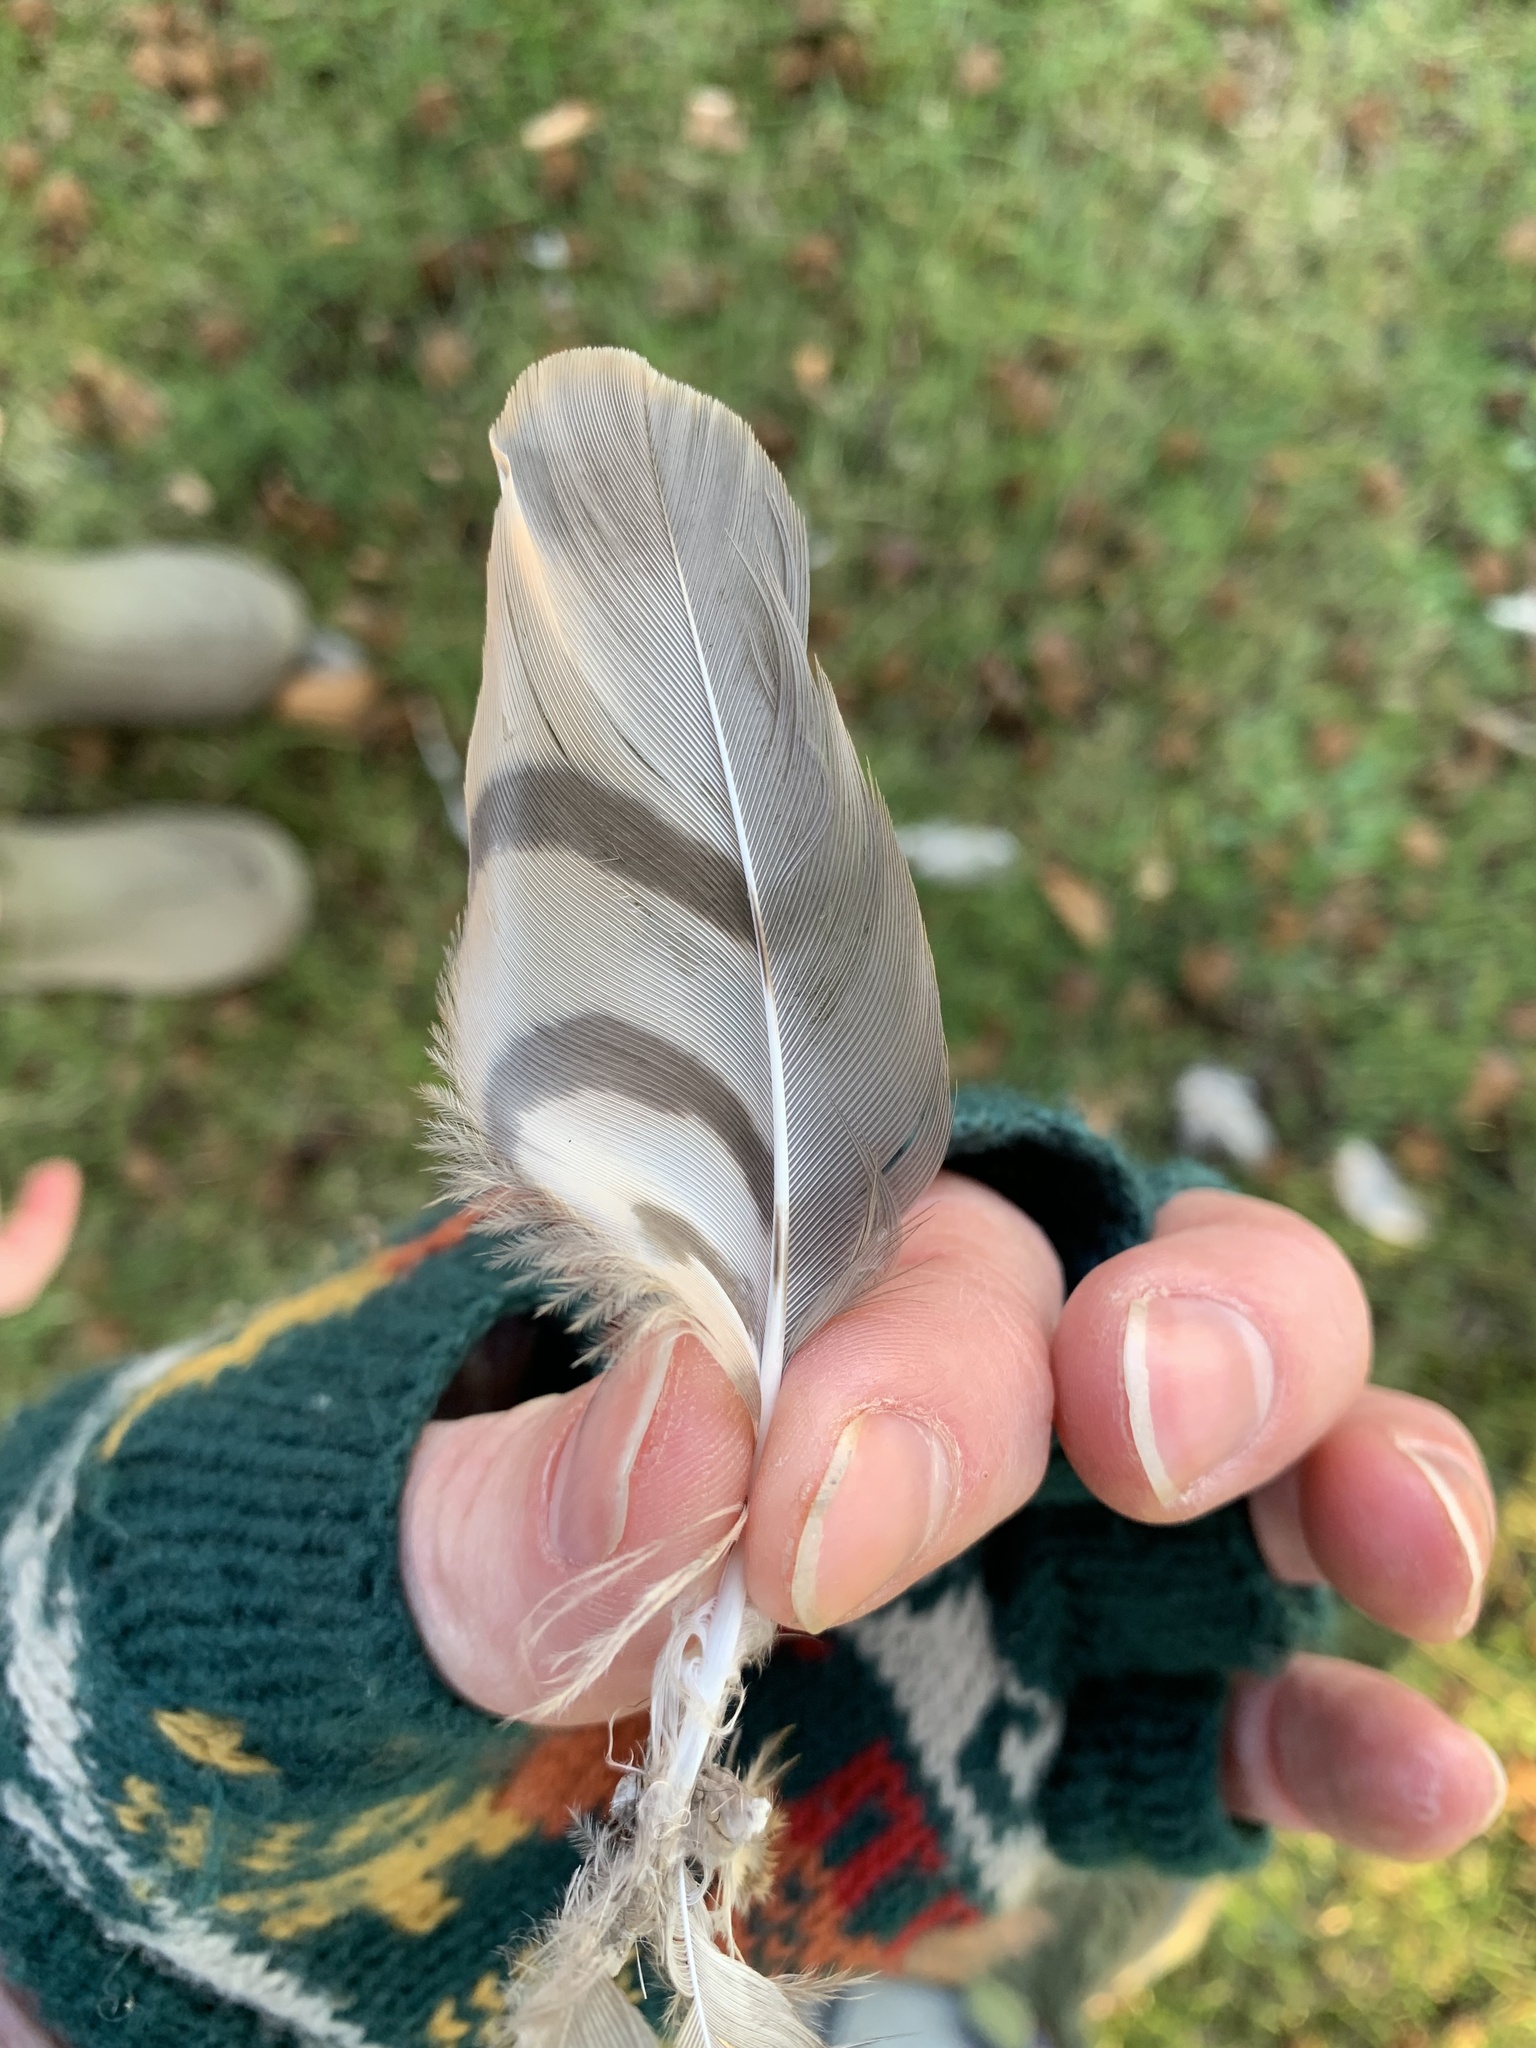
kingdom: Animalia
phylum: Chordata
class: Aves
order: Accipitriformes
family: Accipitridae
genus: Accipiter
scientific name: Accipiter nisus
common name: Eurasian sparrowhawk
